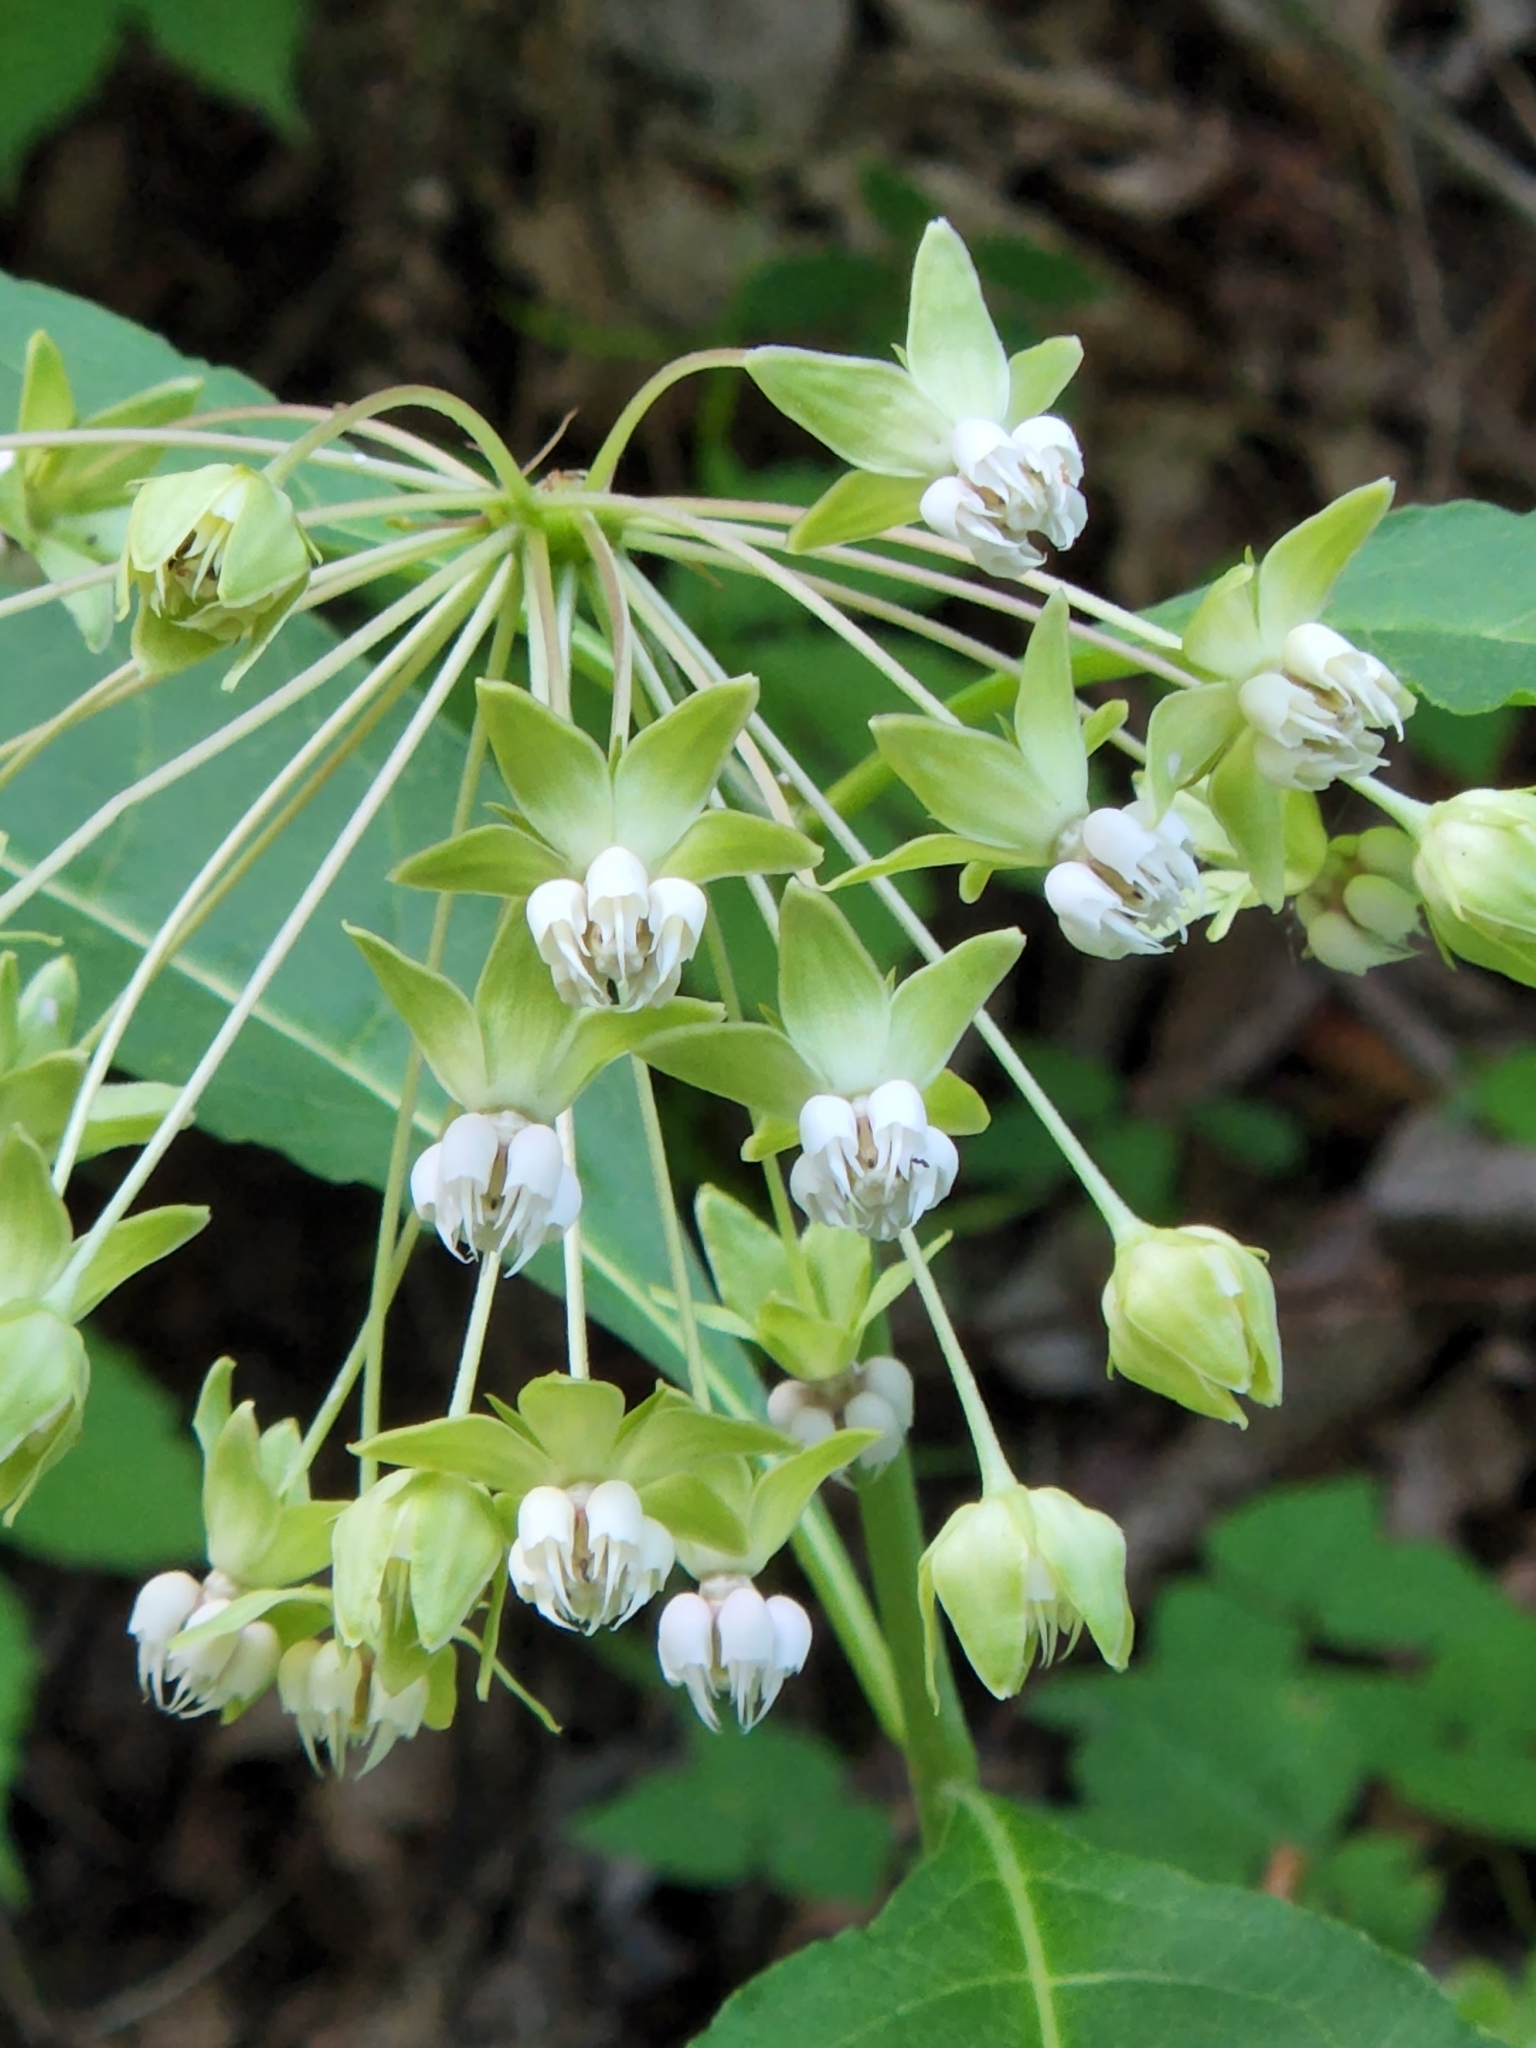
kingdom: Plantae
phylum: Tracheophyta
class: Magnoliopsida
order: Gentianales
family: Apocynaceae
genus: Asclepias
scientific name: Asclepias exaltata
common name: Poke milkweed
